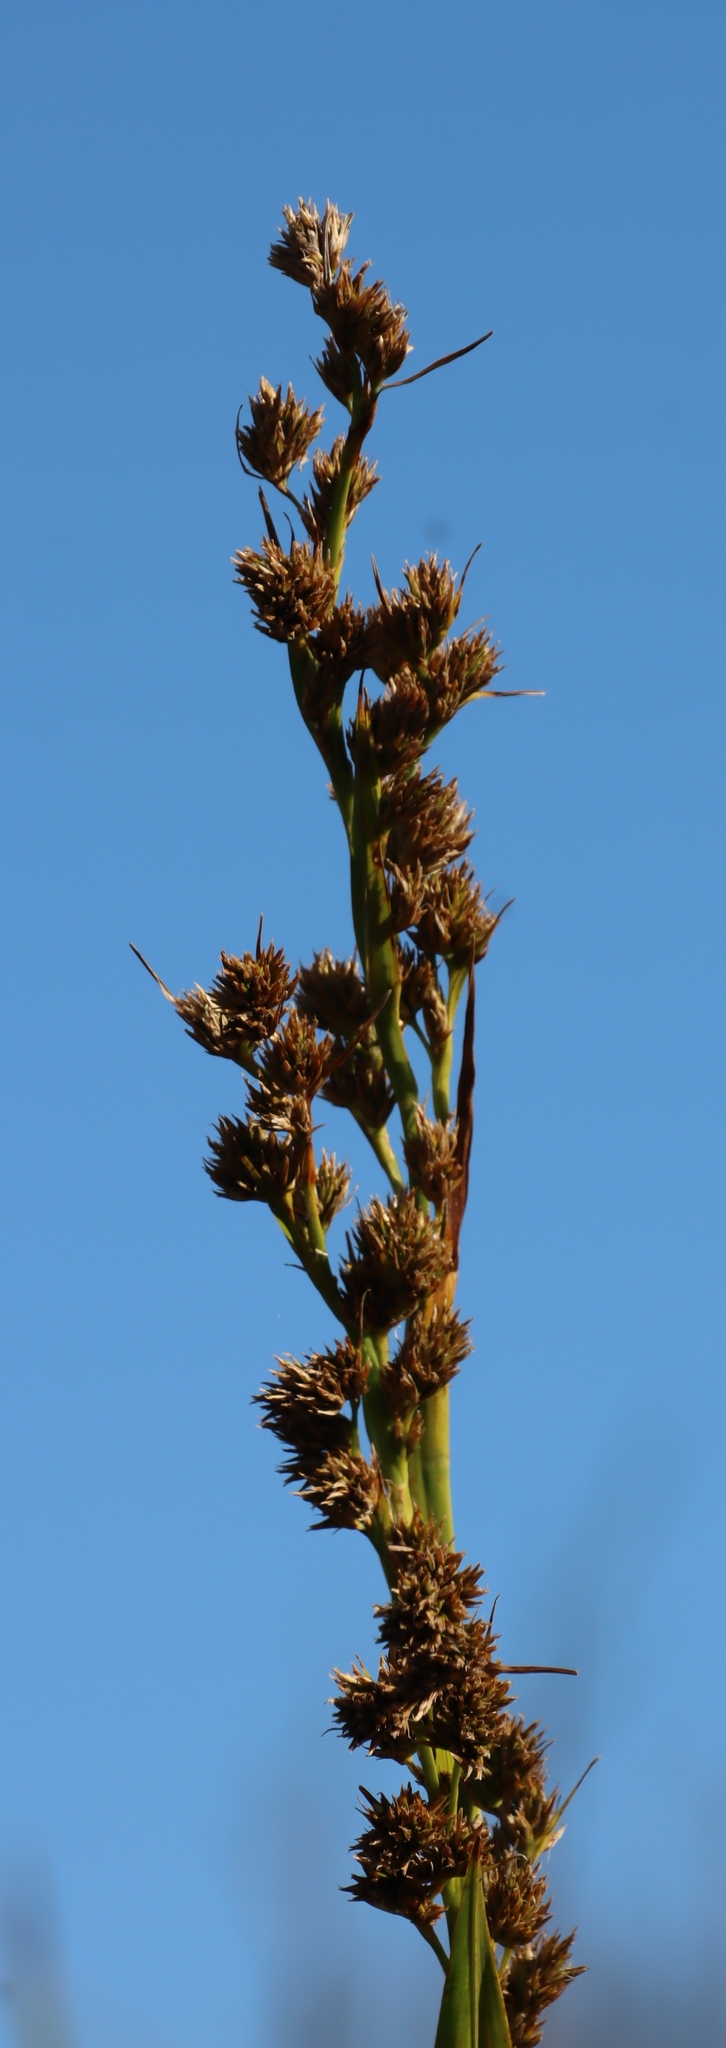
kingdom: Plantae
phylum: Tracheophyta
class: Liliopsida
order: Poales
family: Cyperaceae
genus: Carpha
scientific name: Carpha glomerata
